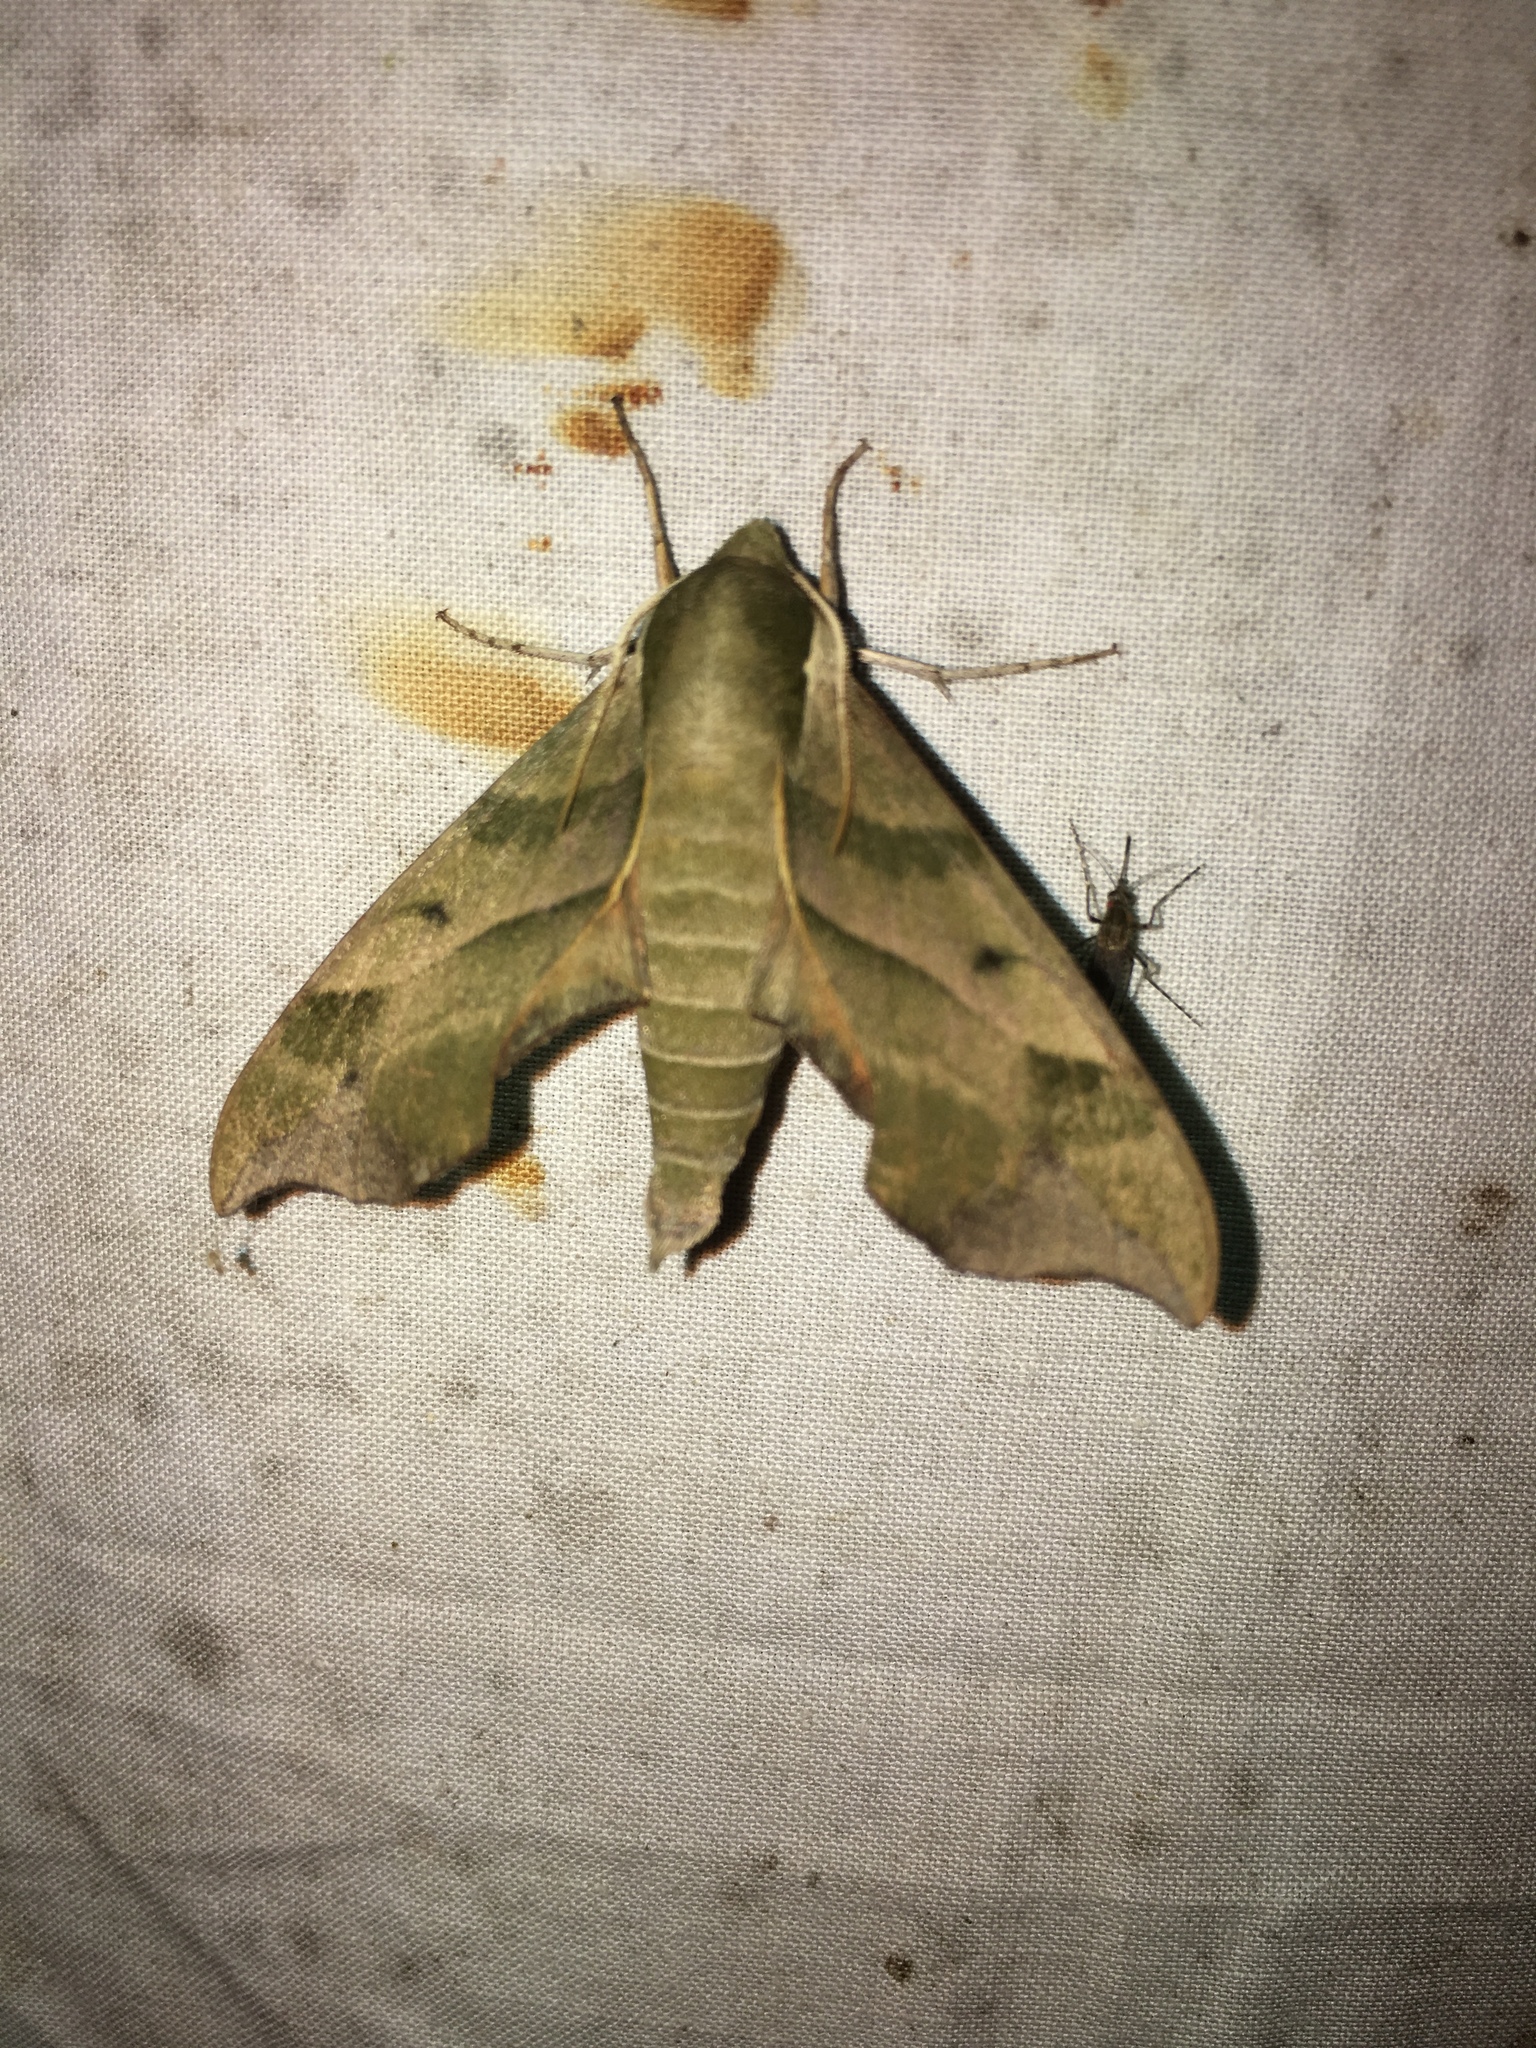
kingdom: Animalia
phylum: Arthropoda
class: Insecta
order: Lepidoptera
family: Sphingidae
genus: Darapsa
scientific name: Darapsa myron
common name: Hog sphinx
